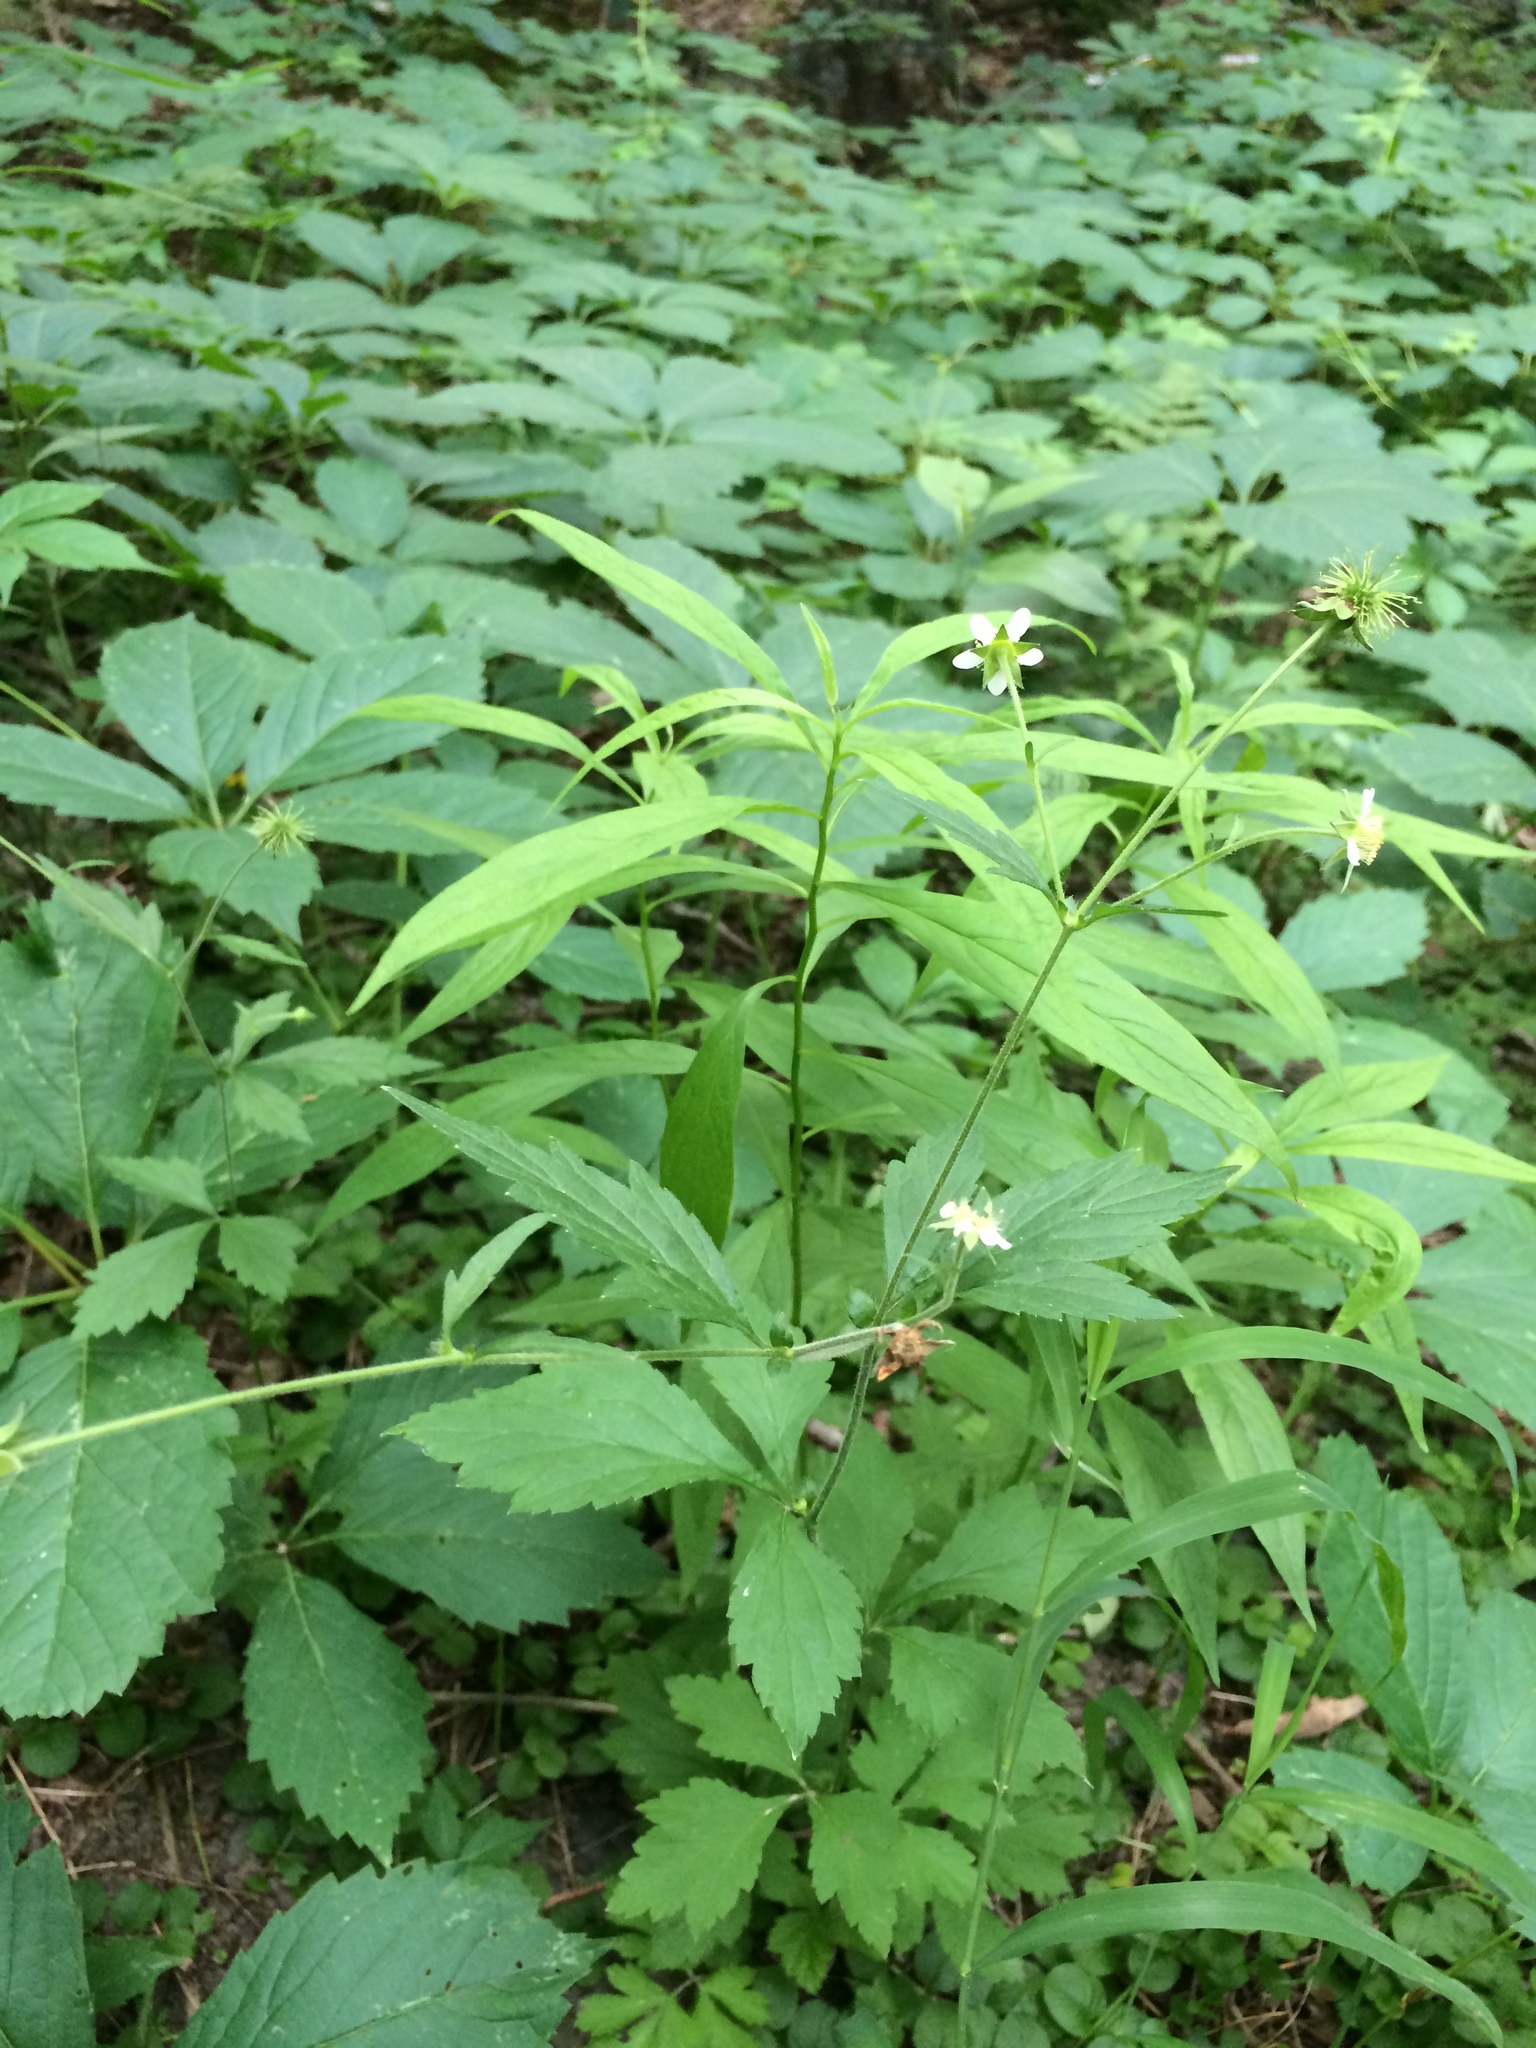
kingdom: Plantae
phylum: Tracheophyta
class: Magnoliopsida
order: Rosales
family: Rosaceae
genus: Geum
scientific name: Geum canadense
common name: White avens
